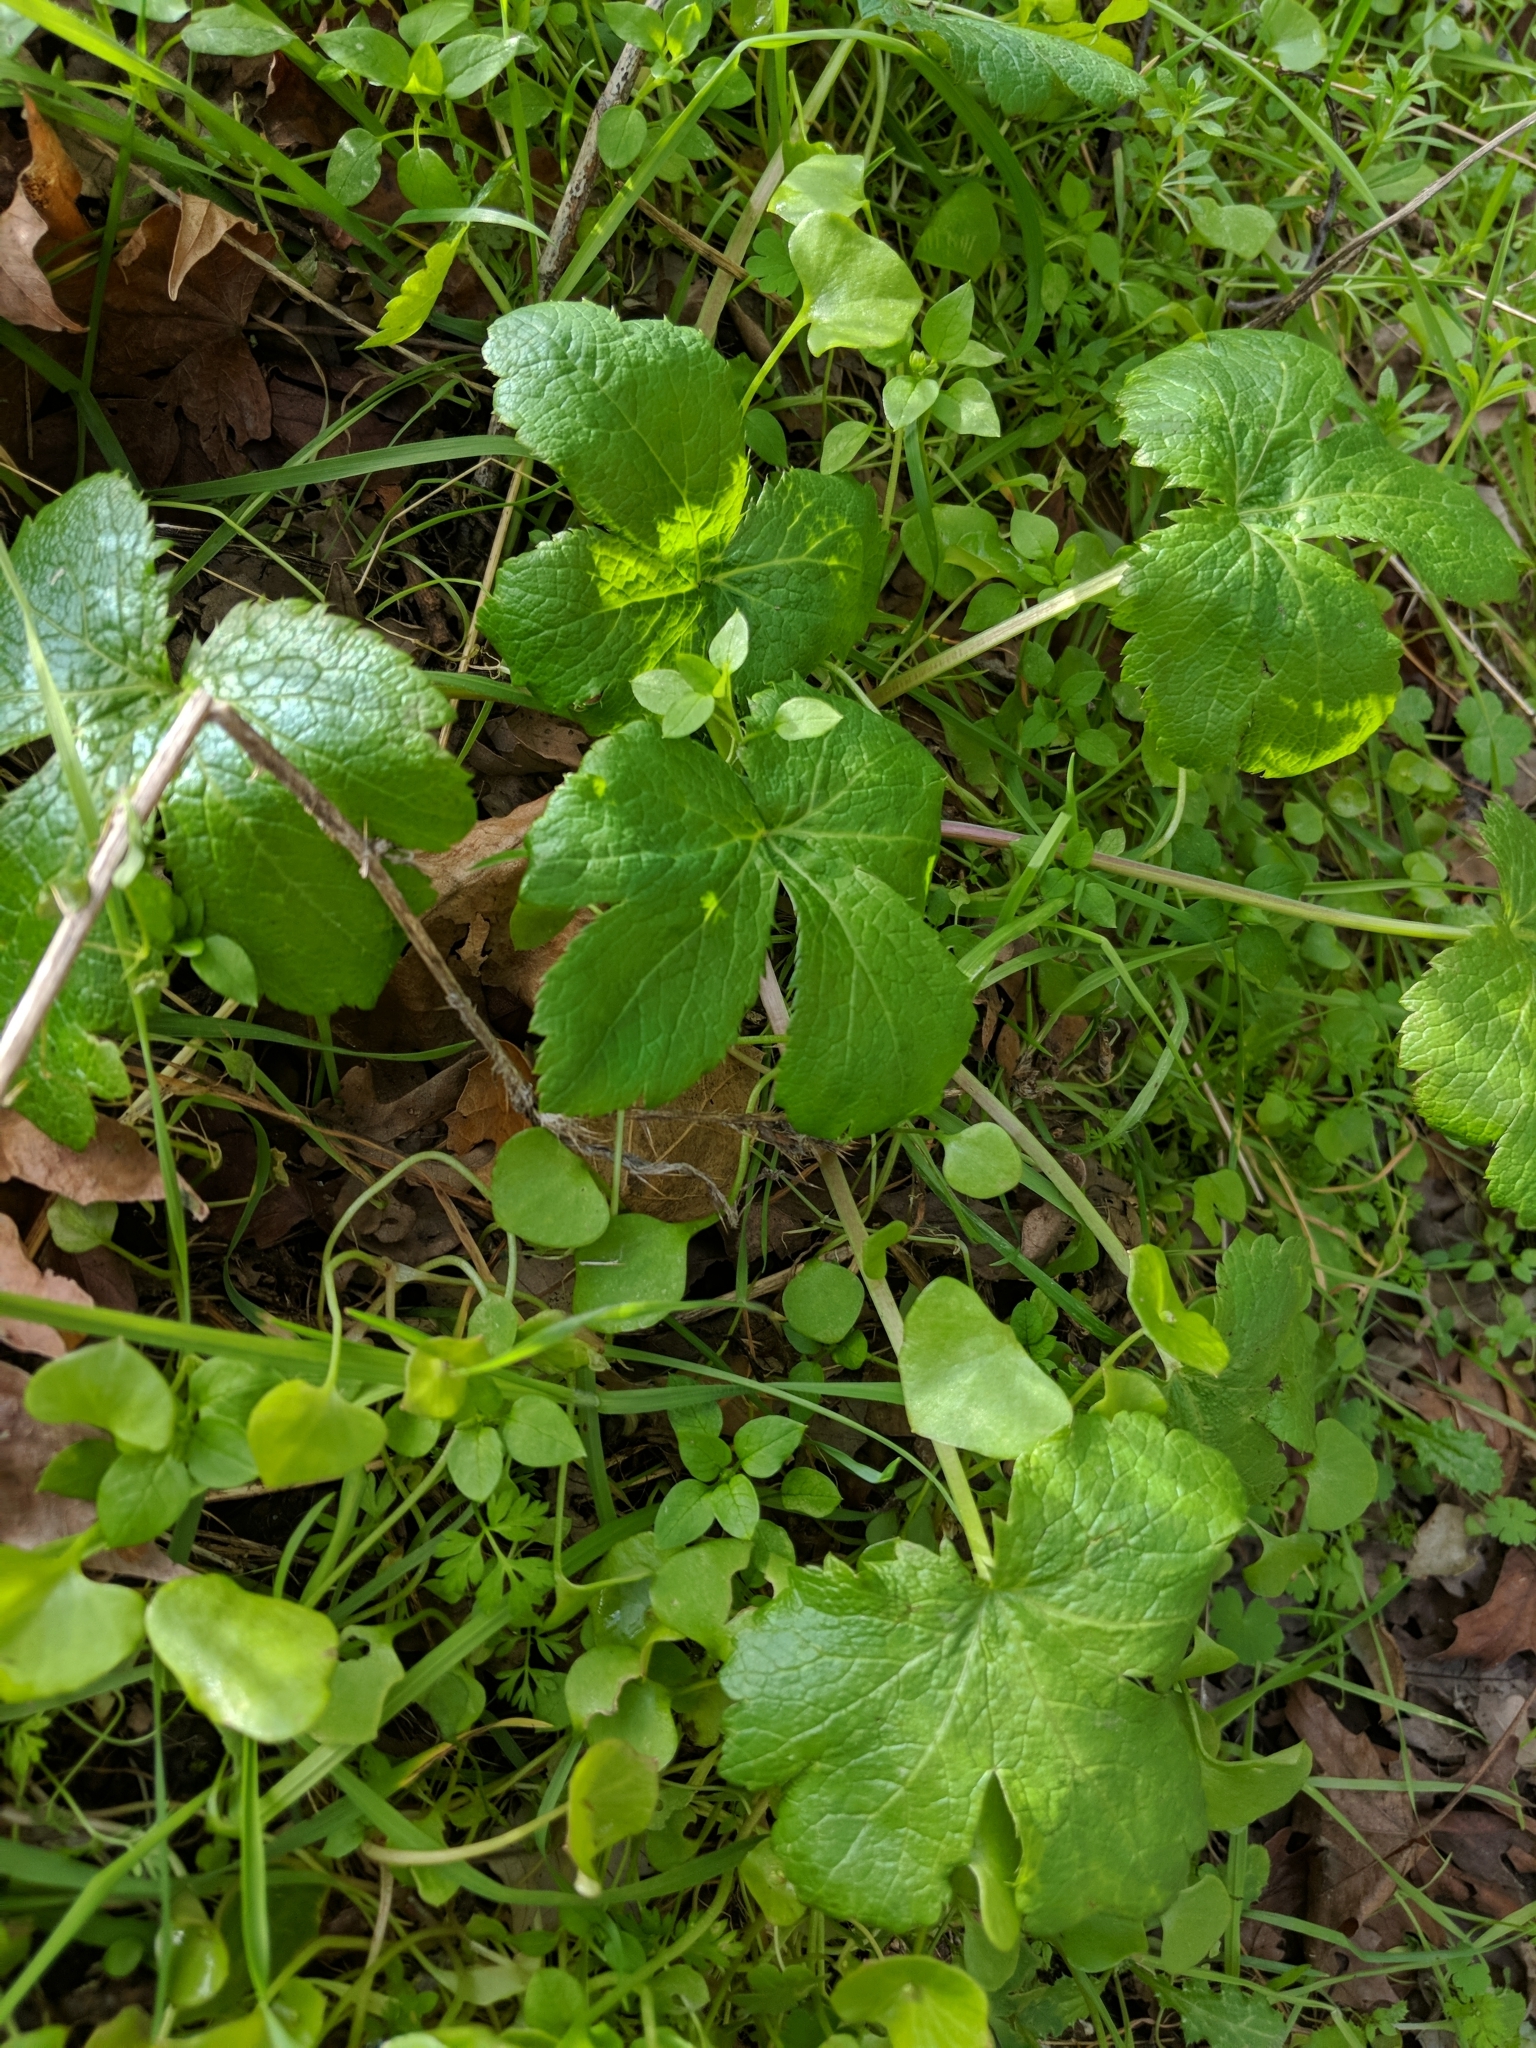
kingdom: Plantae
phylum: Tracheophyta
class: Magnoliopsida
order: Apiales
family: Apiaceae
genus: Sanicula
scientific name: Sanicula crassicaulis
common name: Western snakeroot
